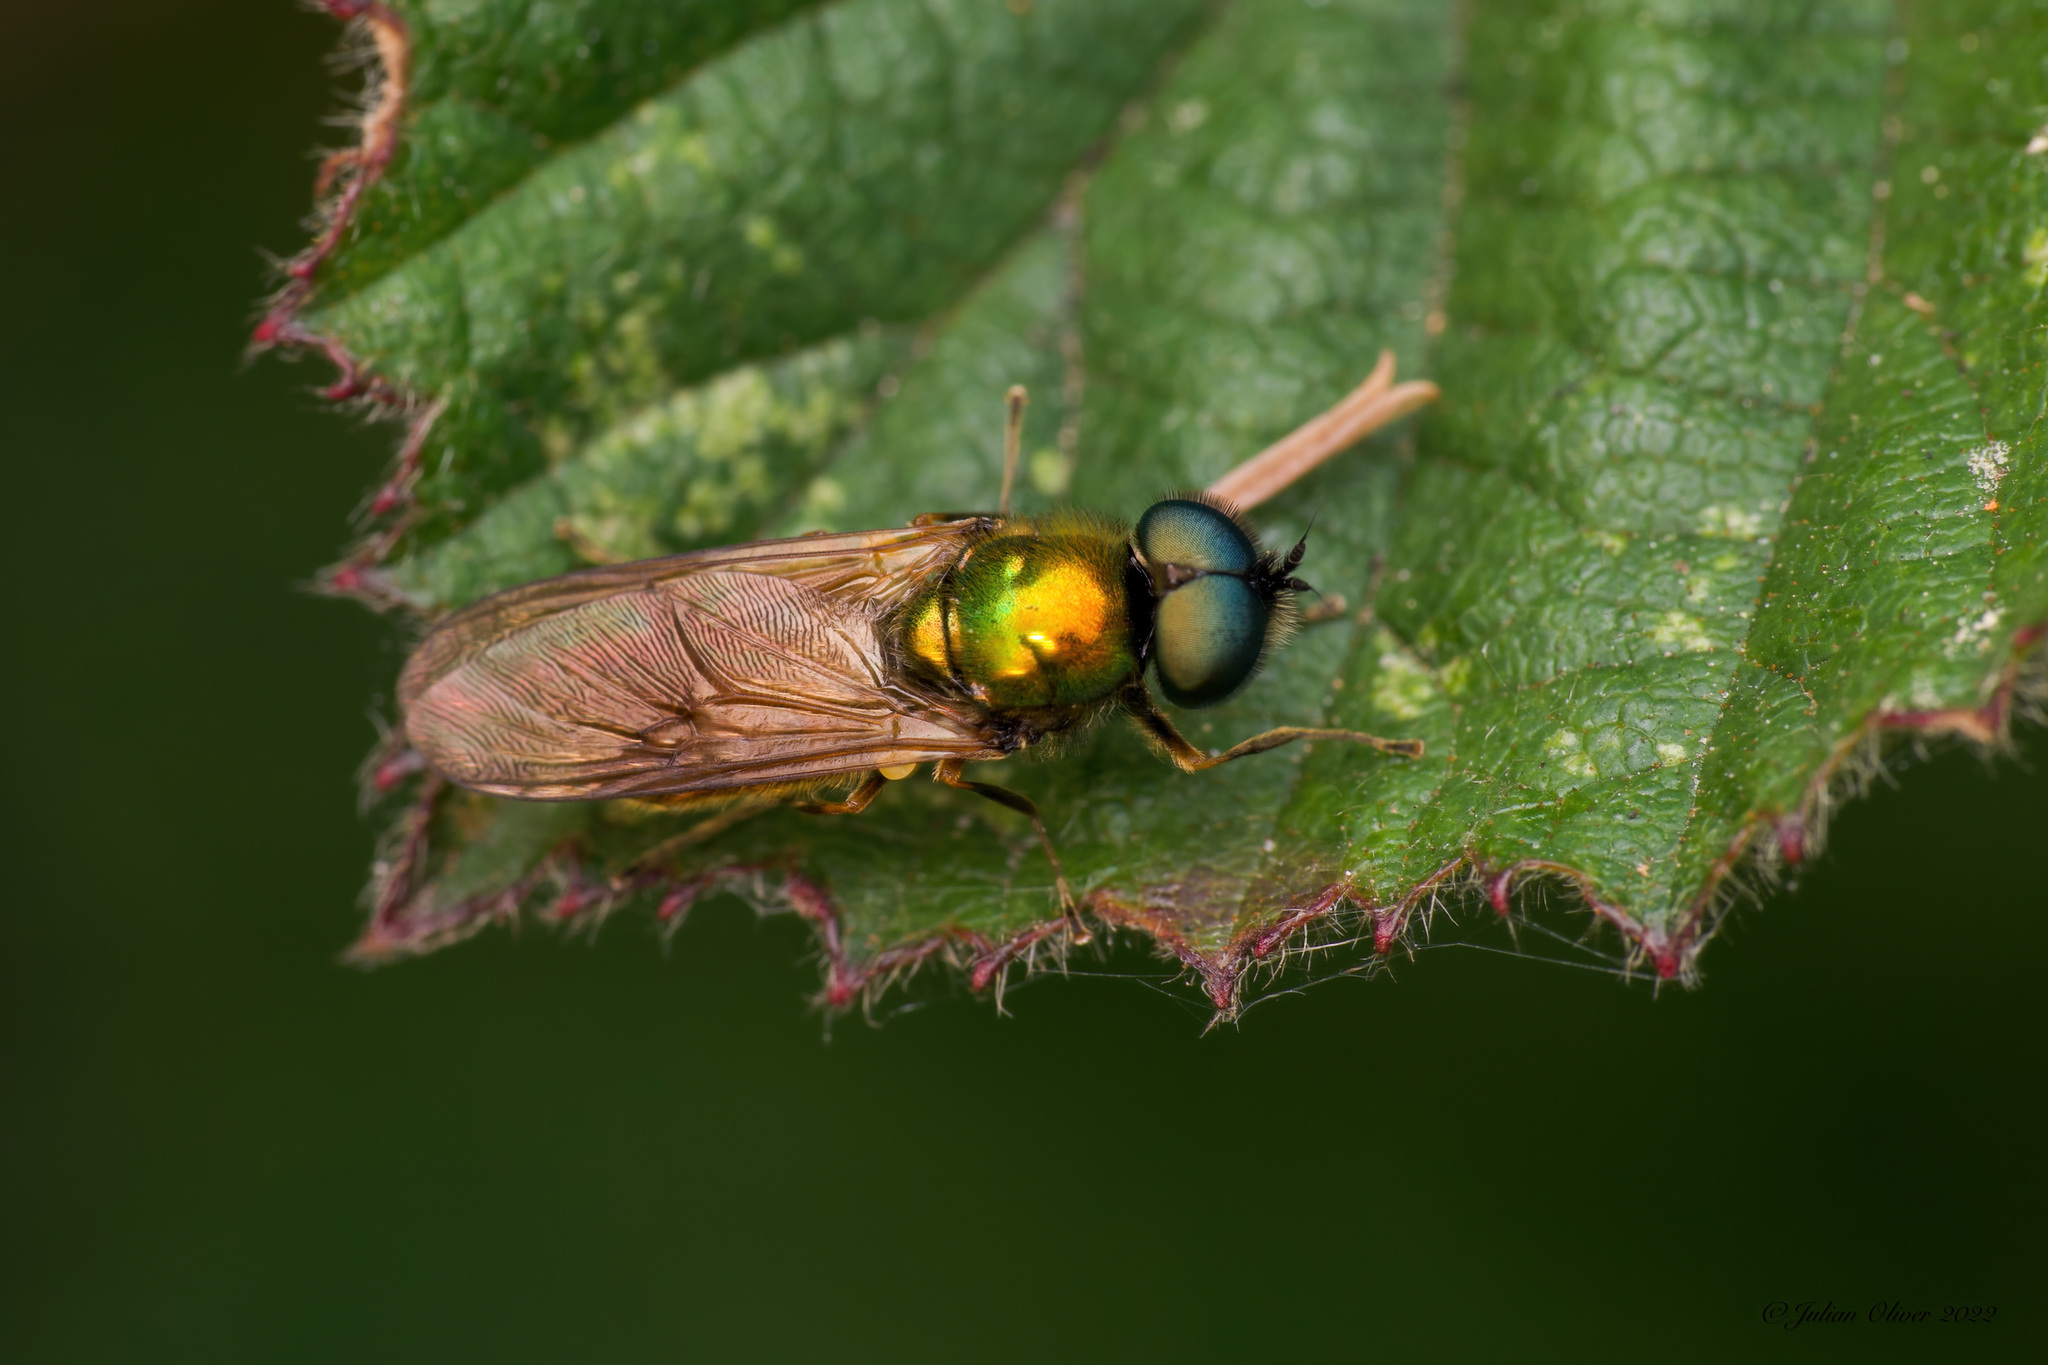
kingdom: Animalia
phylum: Arthropoda
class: Insecta
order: Diptera
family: Stratiomyidae
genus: Chloromyia
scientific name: Chloromyia formosa
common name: Soldier fly
